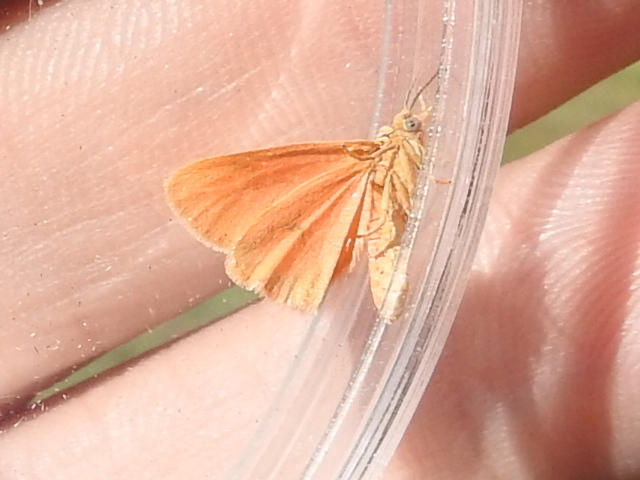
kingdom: Animalia
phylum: Arthropoda
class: Insecta
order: Lepidoptera
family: Erebidae
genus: Virbia
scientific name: Virbia aurantiaca
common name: Orange virbia moth
